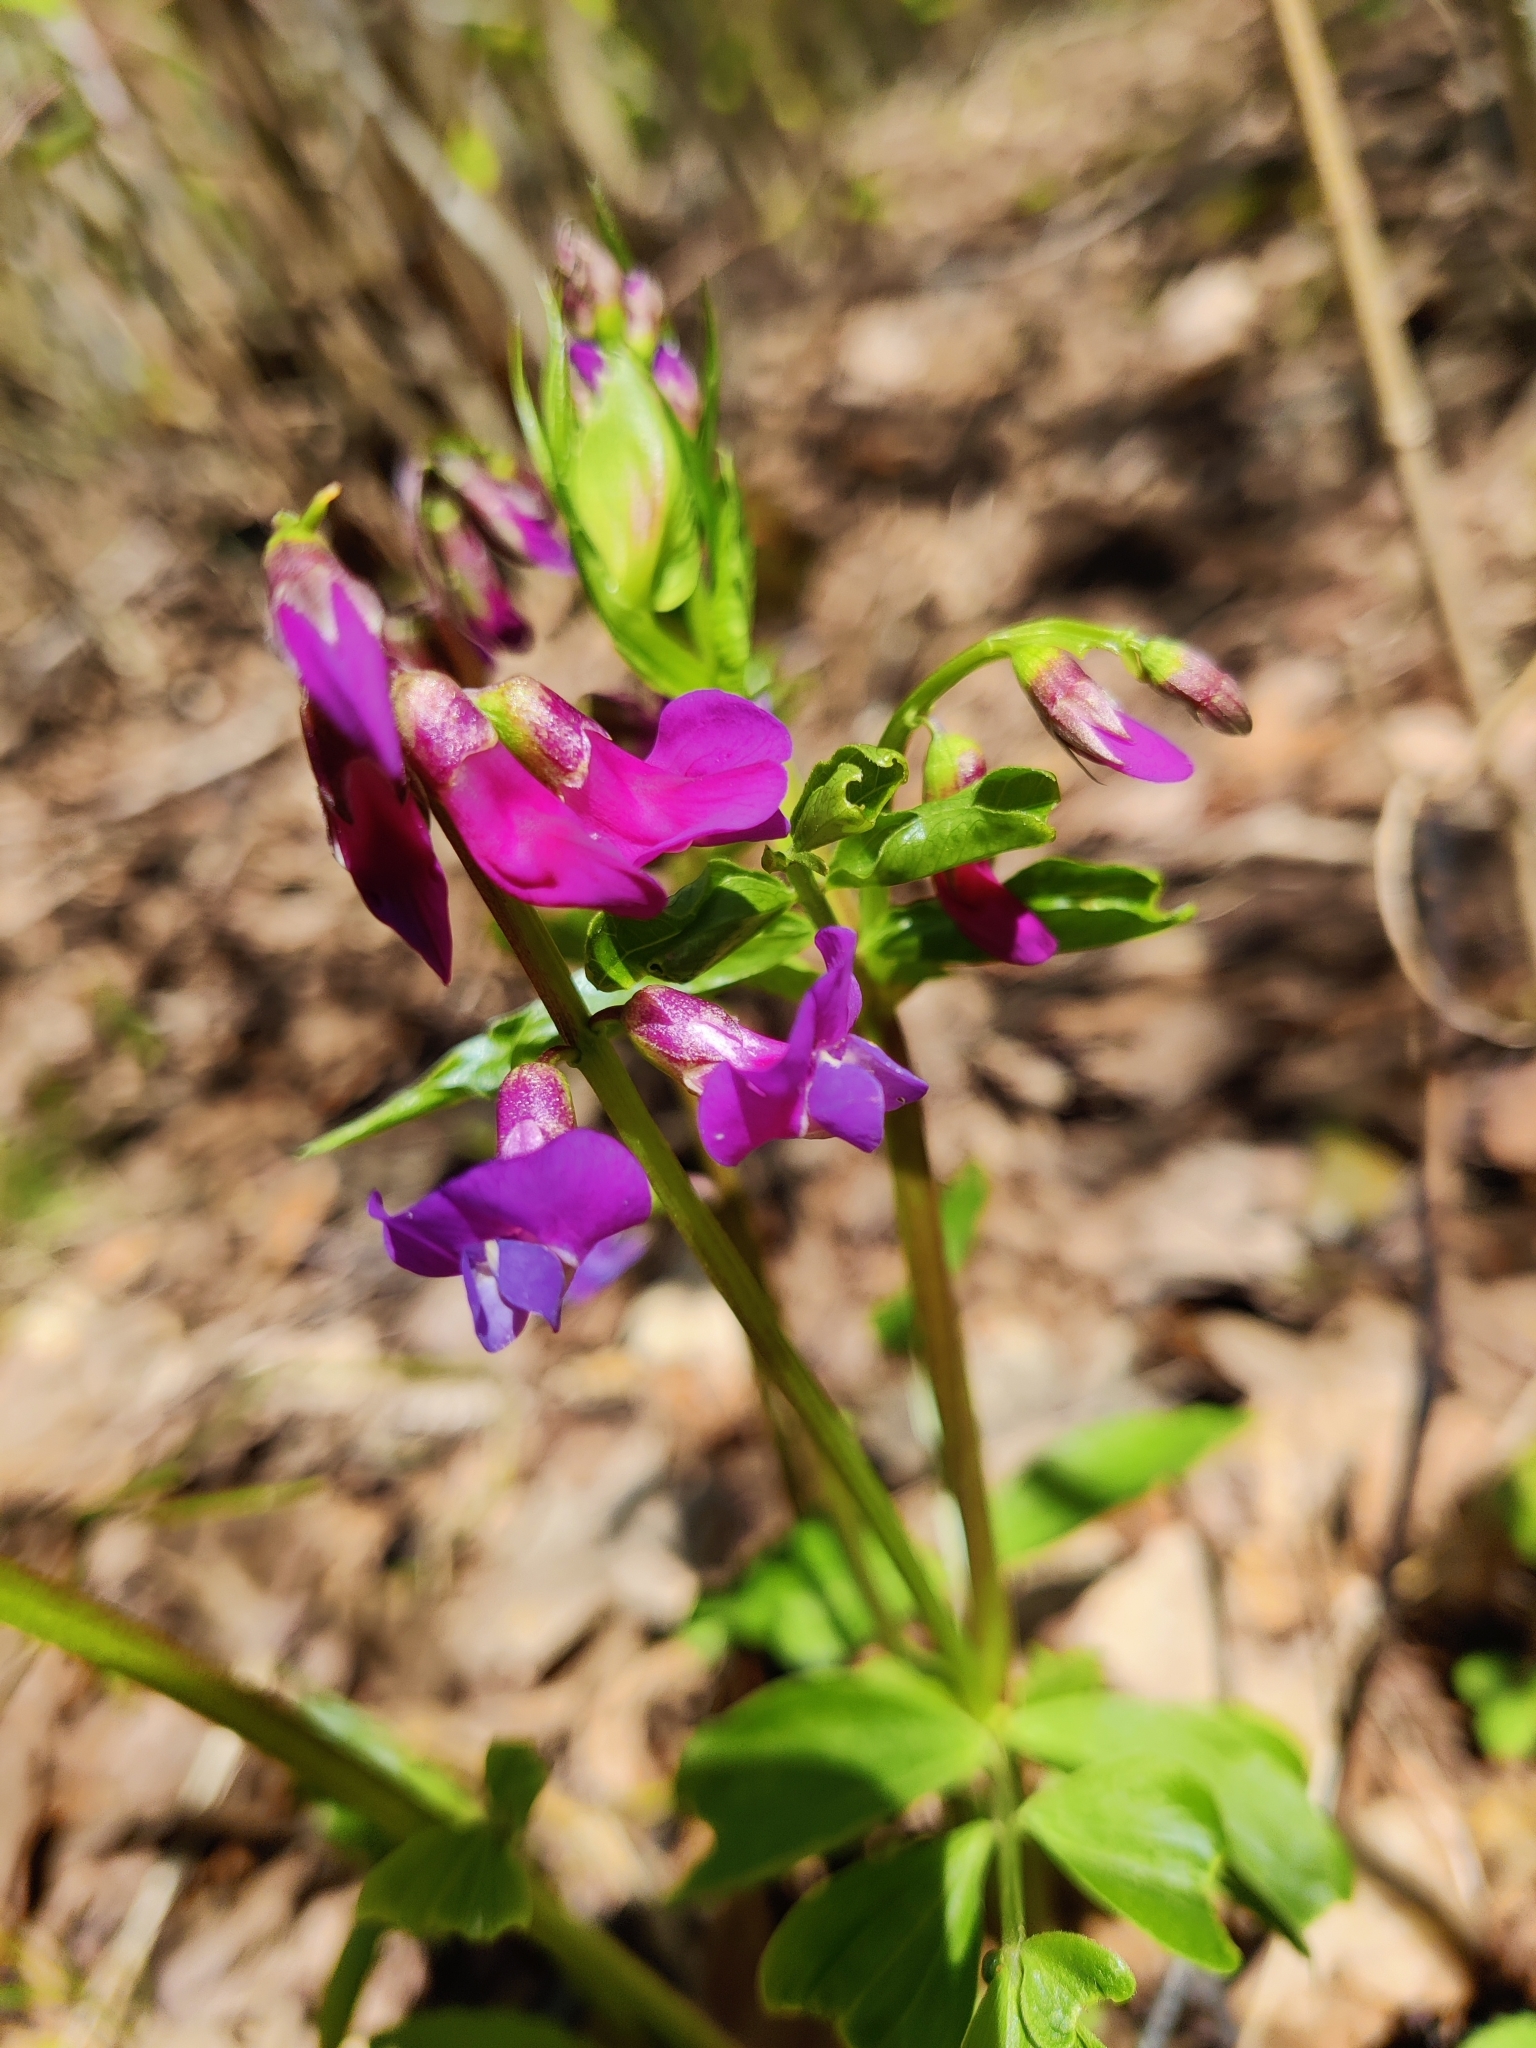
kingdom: Plantae
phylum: Tracheophyta
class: Magnoliopsida
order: Fabales
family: Fabaceae
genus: Lathyrus
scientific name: Lathyrus vernus
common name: Spring pea
